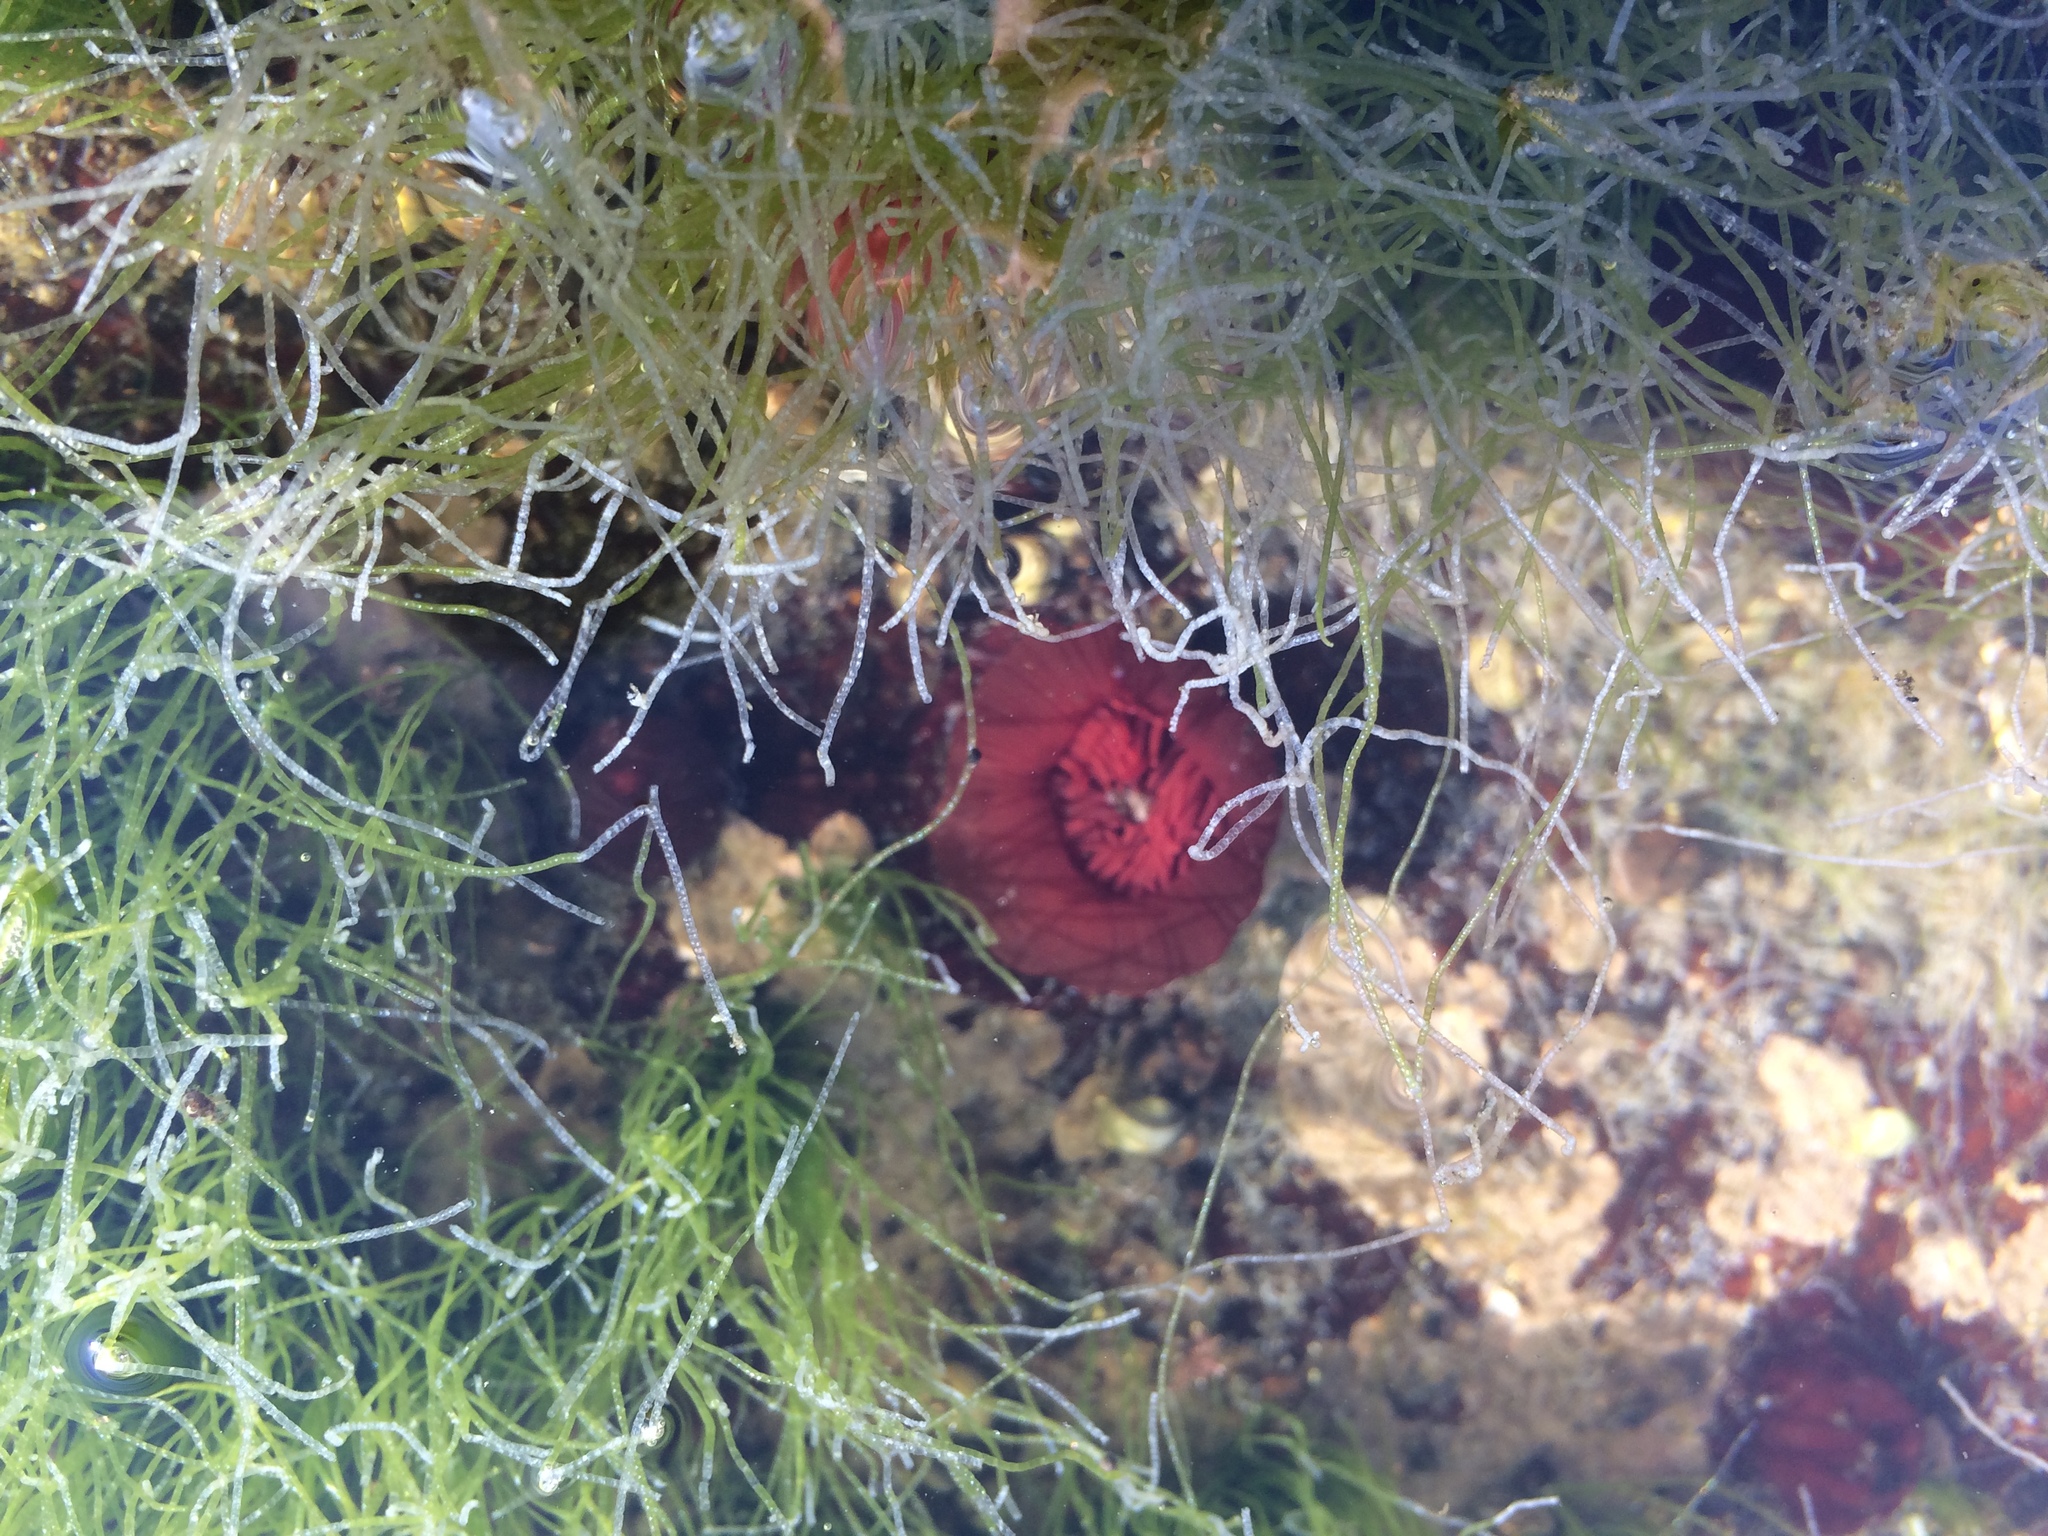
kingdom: Animalia
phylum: Cnidaria
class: Anthozoa
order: Actiniaria
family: Actiniidae
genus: Actinia
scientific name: Actinia equina
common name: Beadlet anemone
